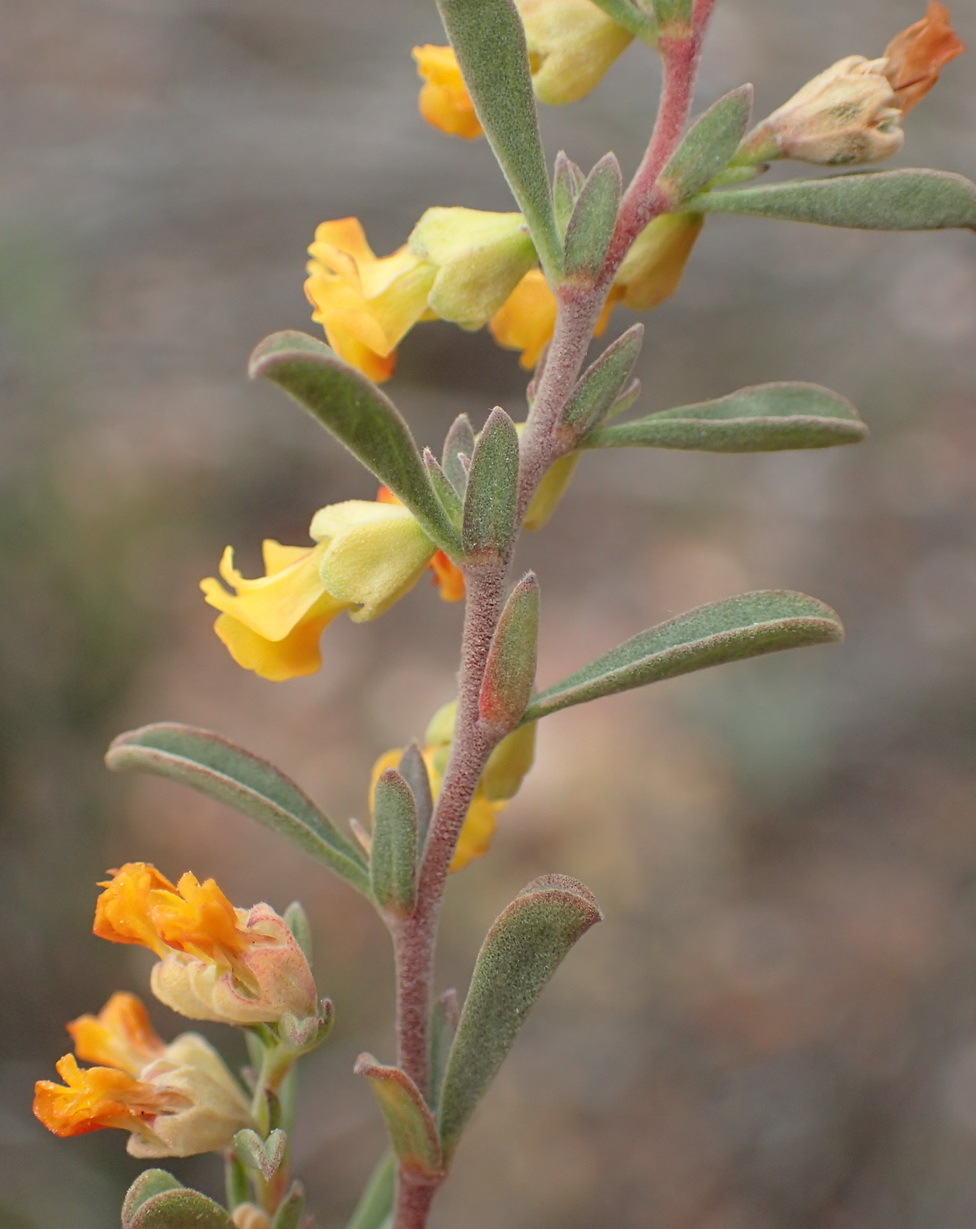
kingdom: Plantae
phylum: Tracheophyta
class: Magnoliopsida
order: Malvales
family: Malvaceae
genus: Hermannia
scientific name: Hermannia diversistipula
